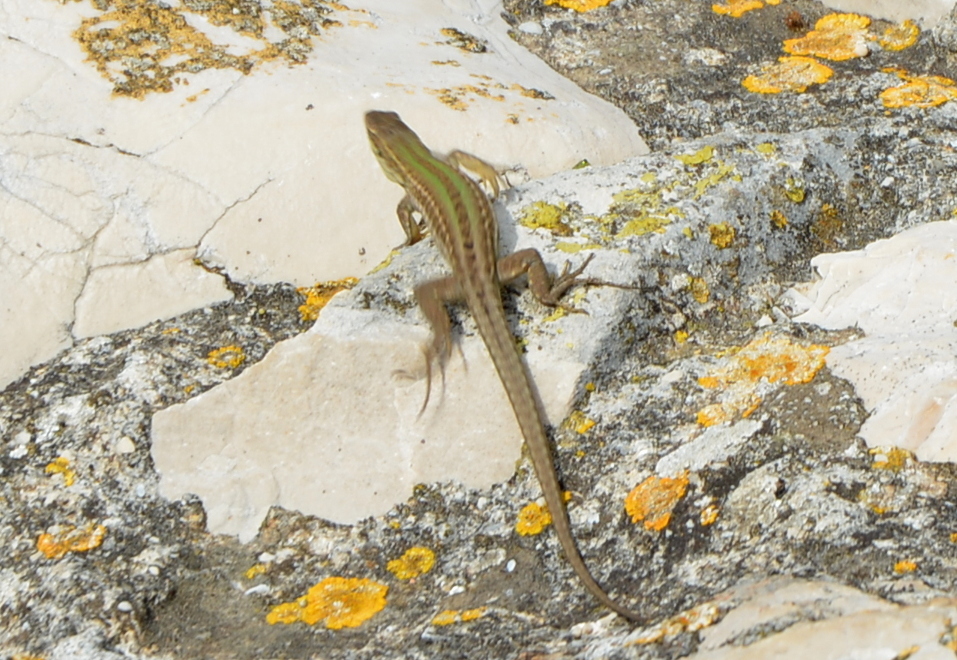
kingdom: Animalia
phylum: Chordata
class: Squamata
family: Lacertidae
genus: Podarcis
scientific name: Podarcis siculus
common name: Italian wall lizard
